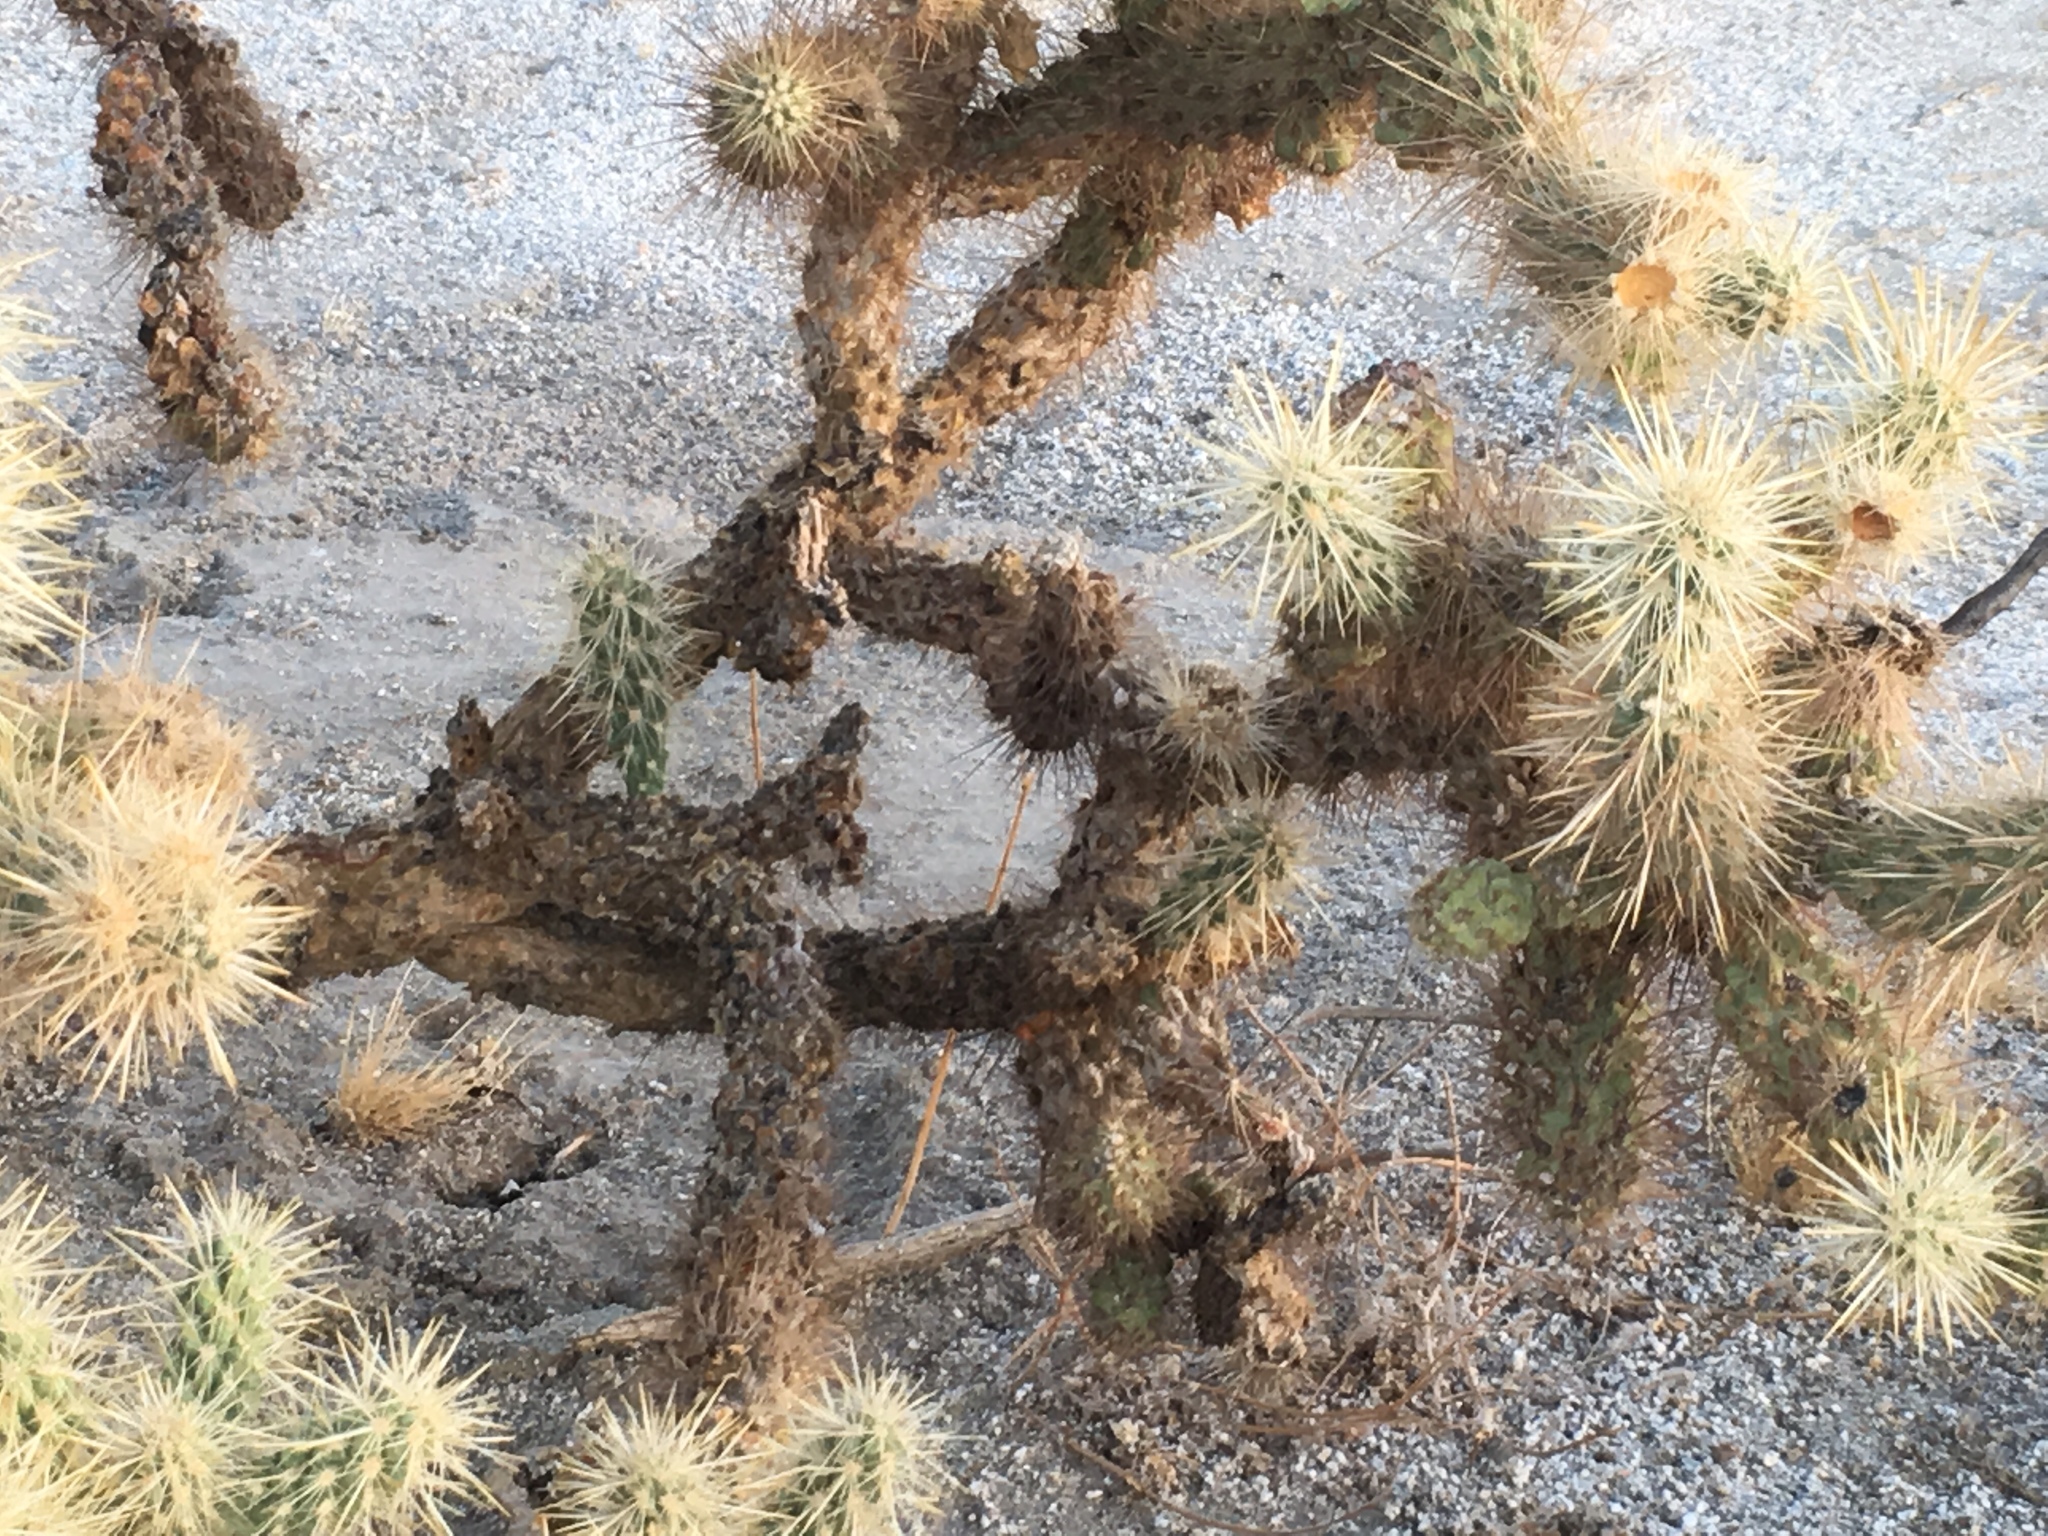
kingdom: Plantae
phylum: Tracheophyta
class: Magnoliopsida
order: Caryophyllales
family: Cactaceae
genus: Cylindropuntia
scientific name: Cylindropuntia echinocarpa
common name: Ground cholla
